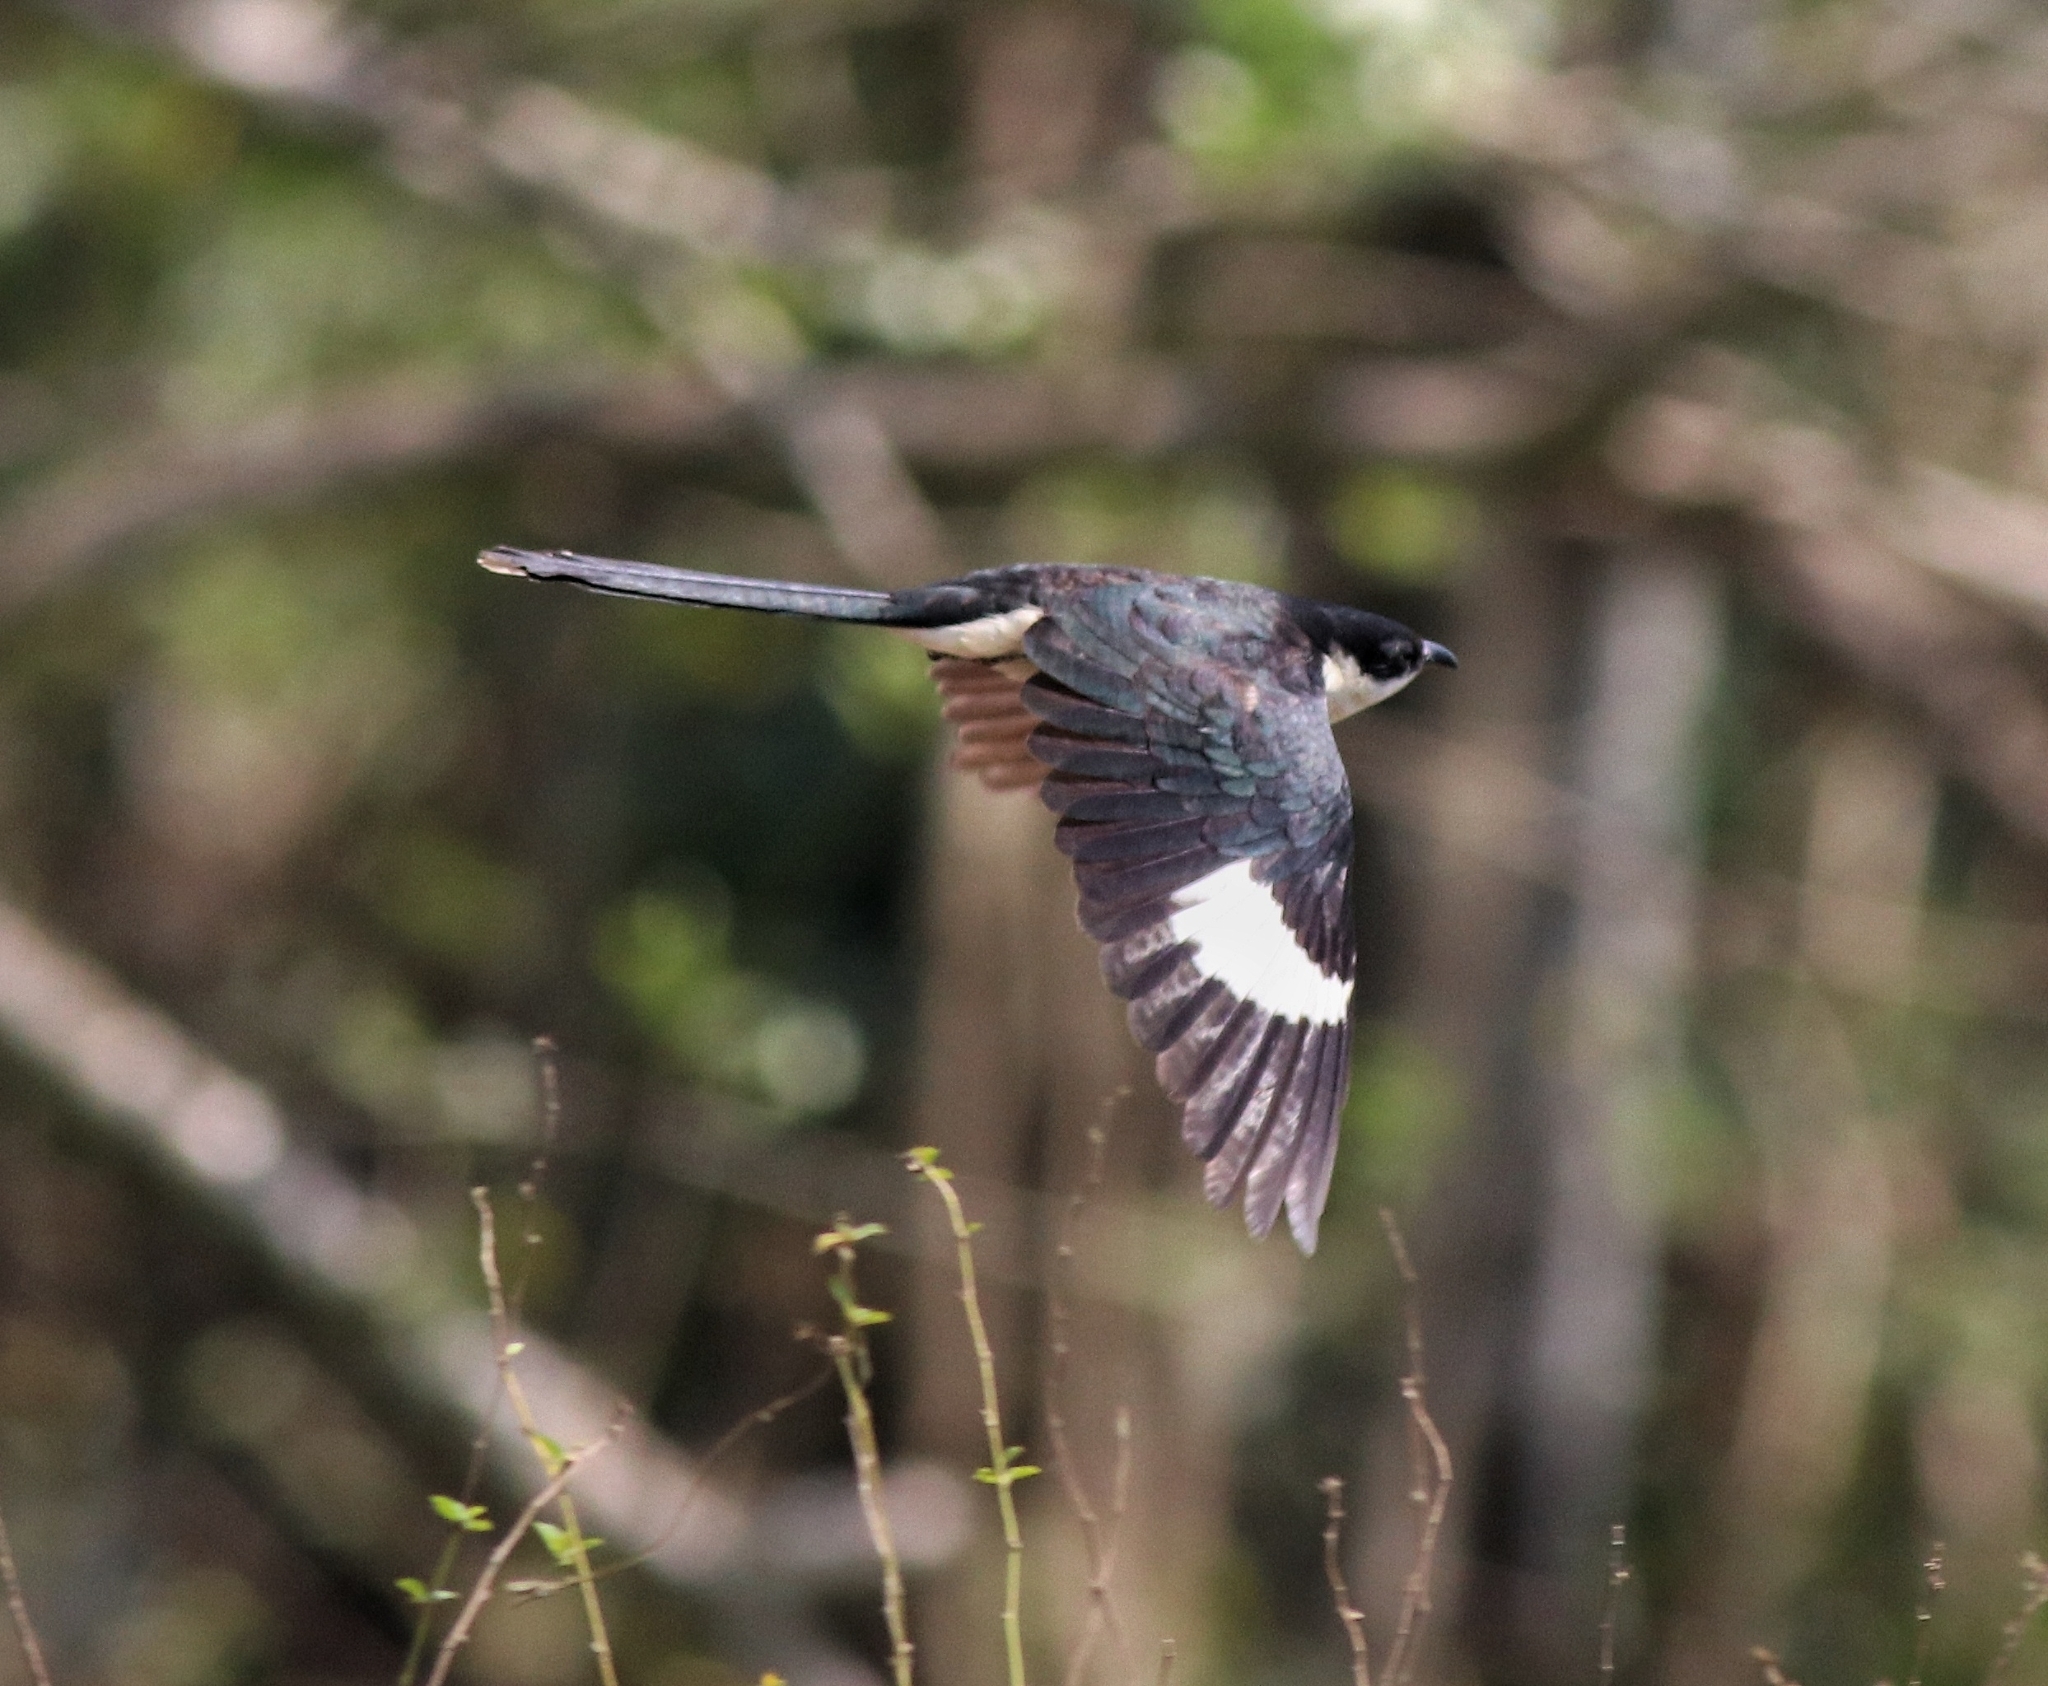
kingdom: Animalia
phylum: Chordata
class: Aves
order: Cuculiformes
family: Cuculidae
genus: Clamator
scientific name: Clamator jacobinus
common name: Jacobin cuckoo
